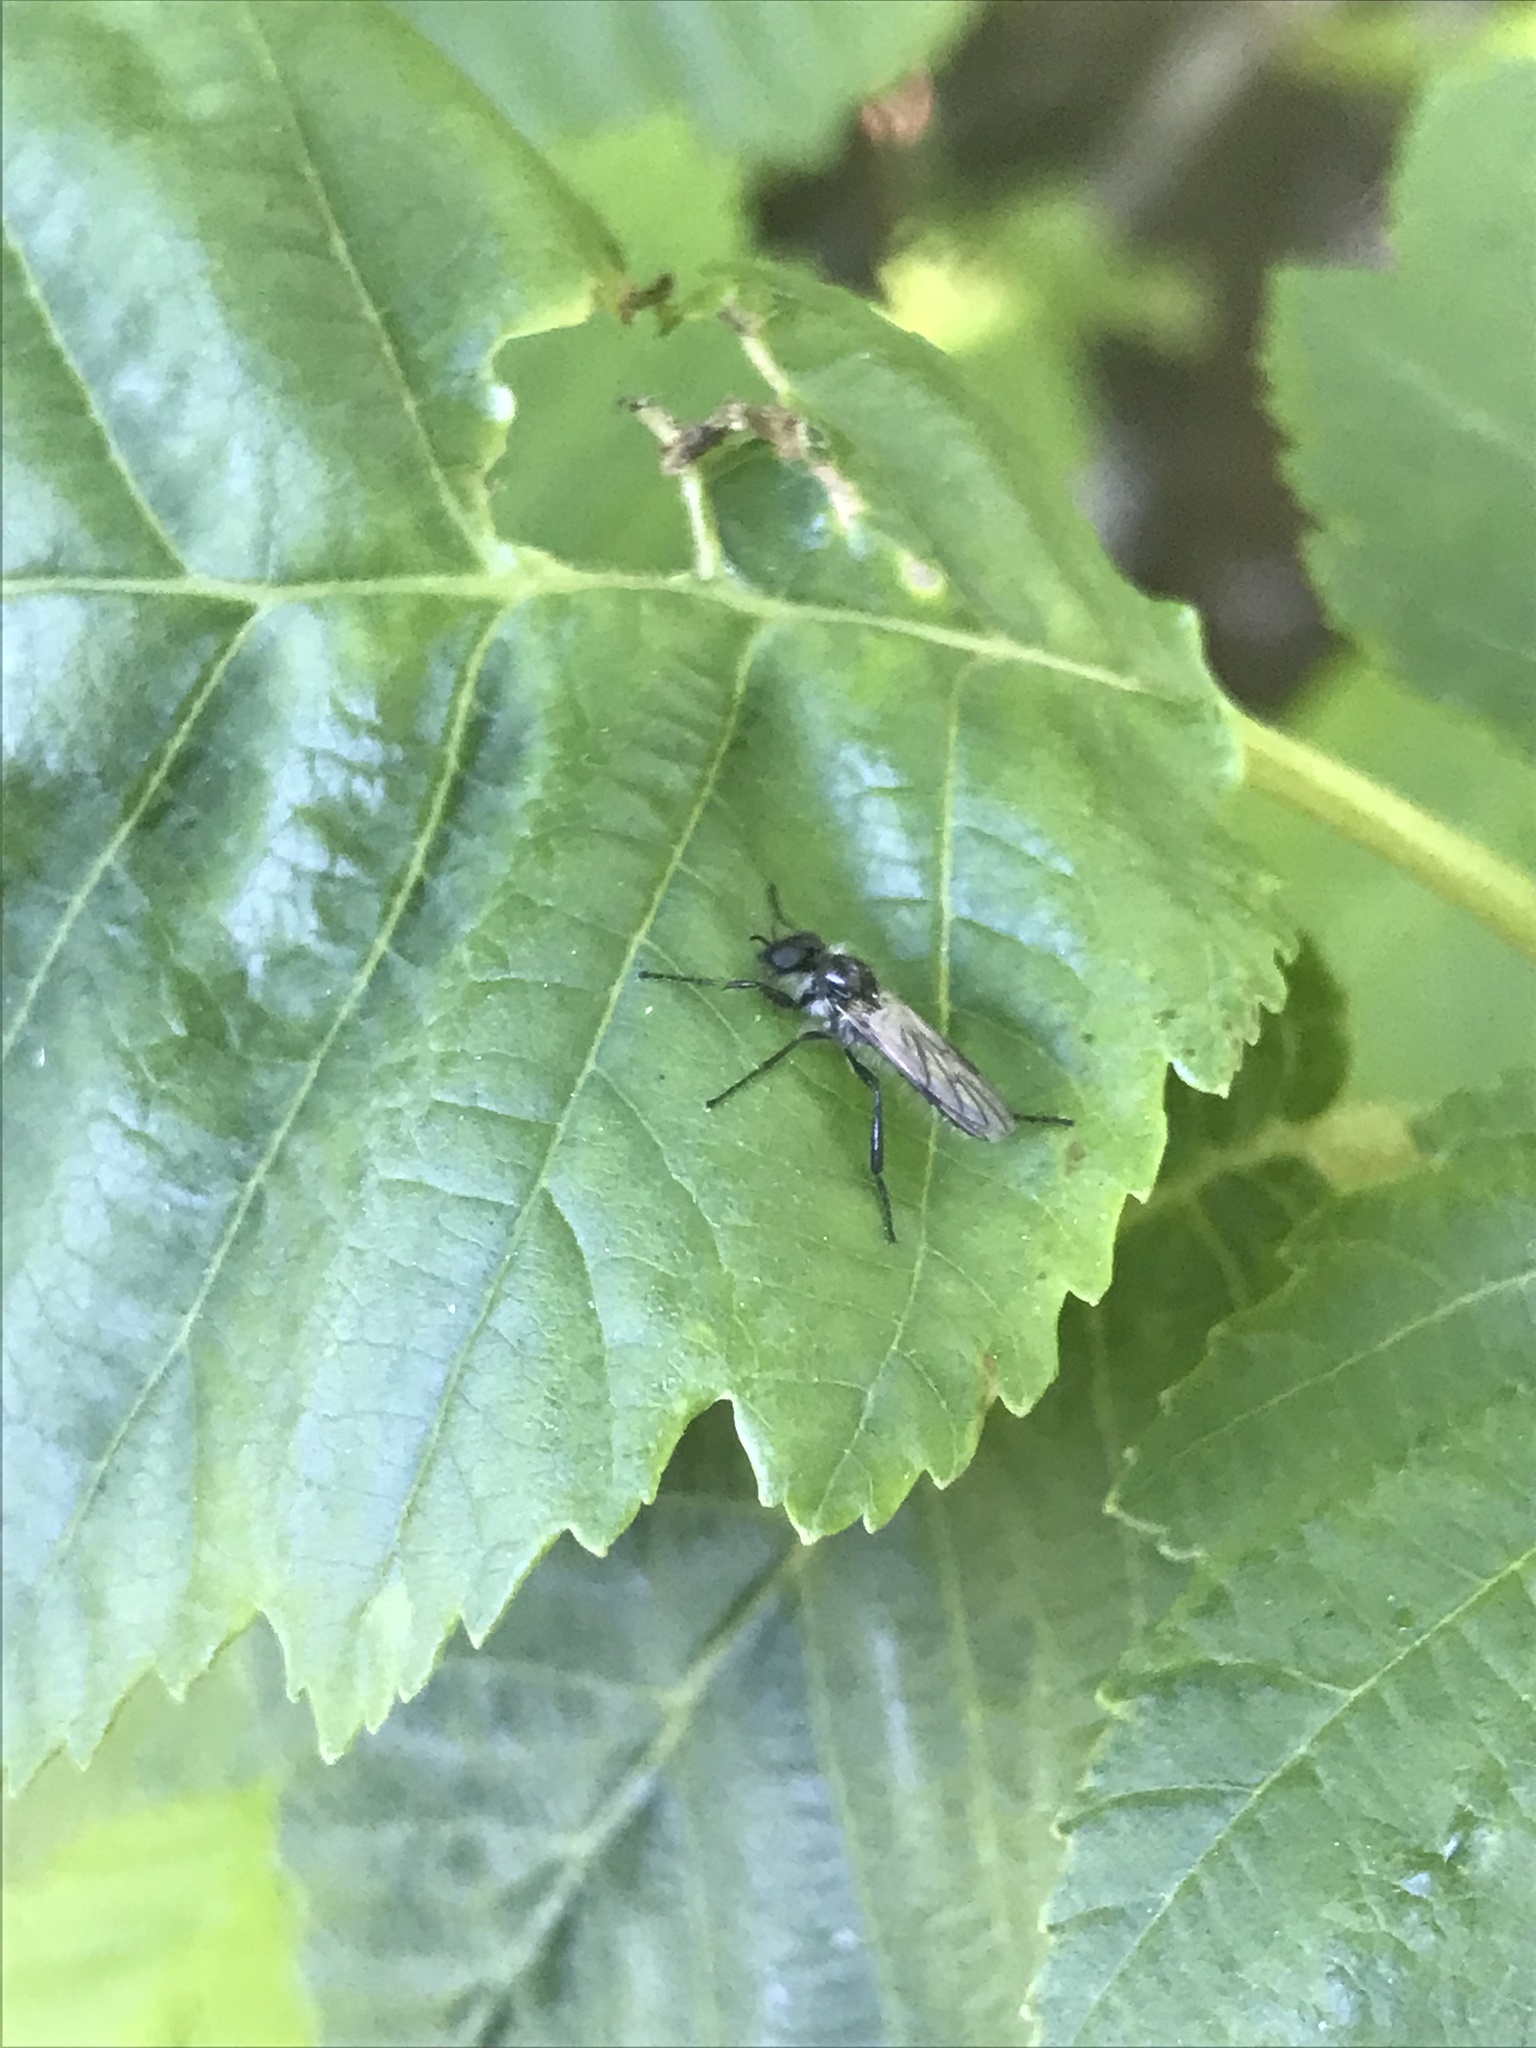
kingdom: Animalia
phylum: Arthropoda
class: Insecta
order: Diptera
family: Bibionidae
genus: Bibio
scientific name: Bibio albipennis
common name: White-winged march fly
